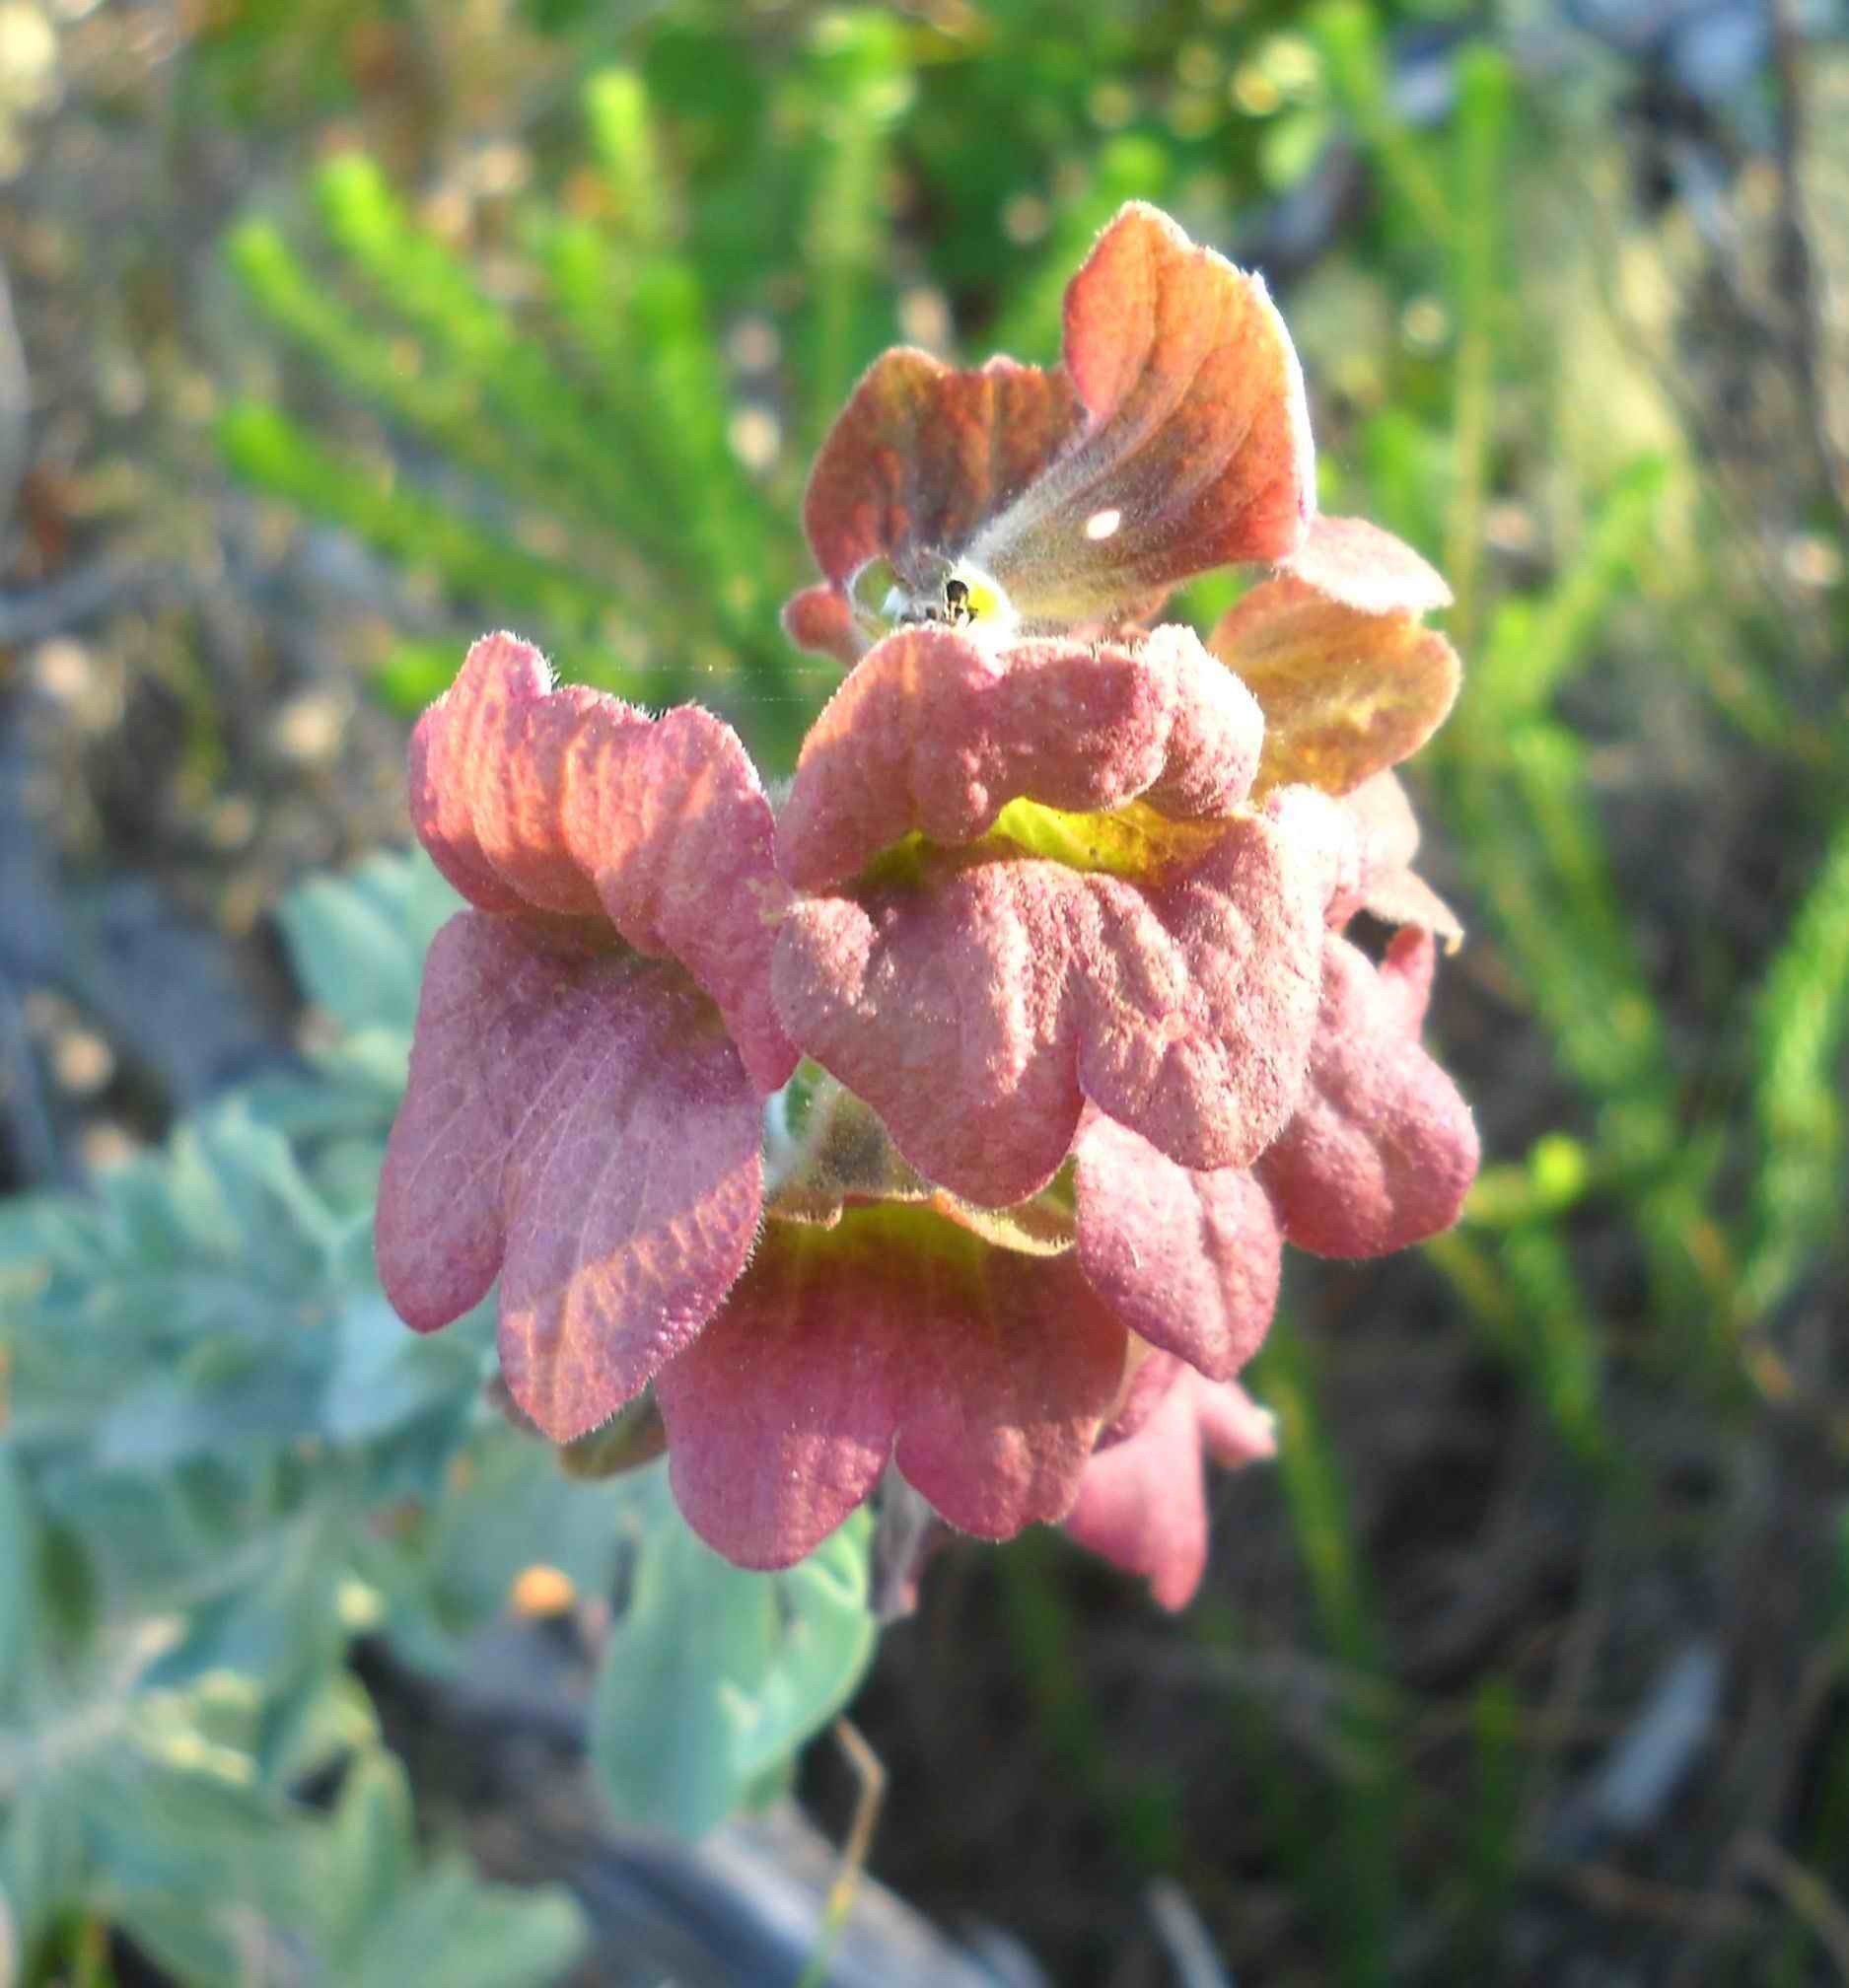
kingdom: Plantae
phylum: Tracheophyta
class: Magnoliopsida
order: Lamiales
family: Lamiaceae
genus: Salvia
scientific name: Salvia aurea
